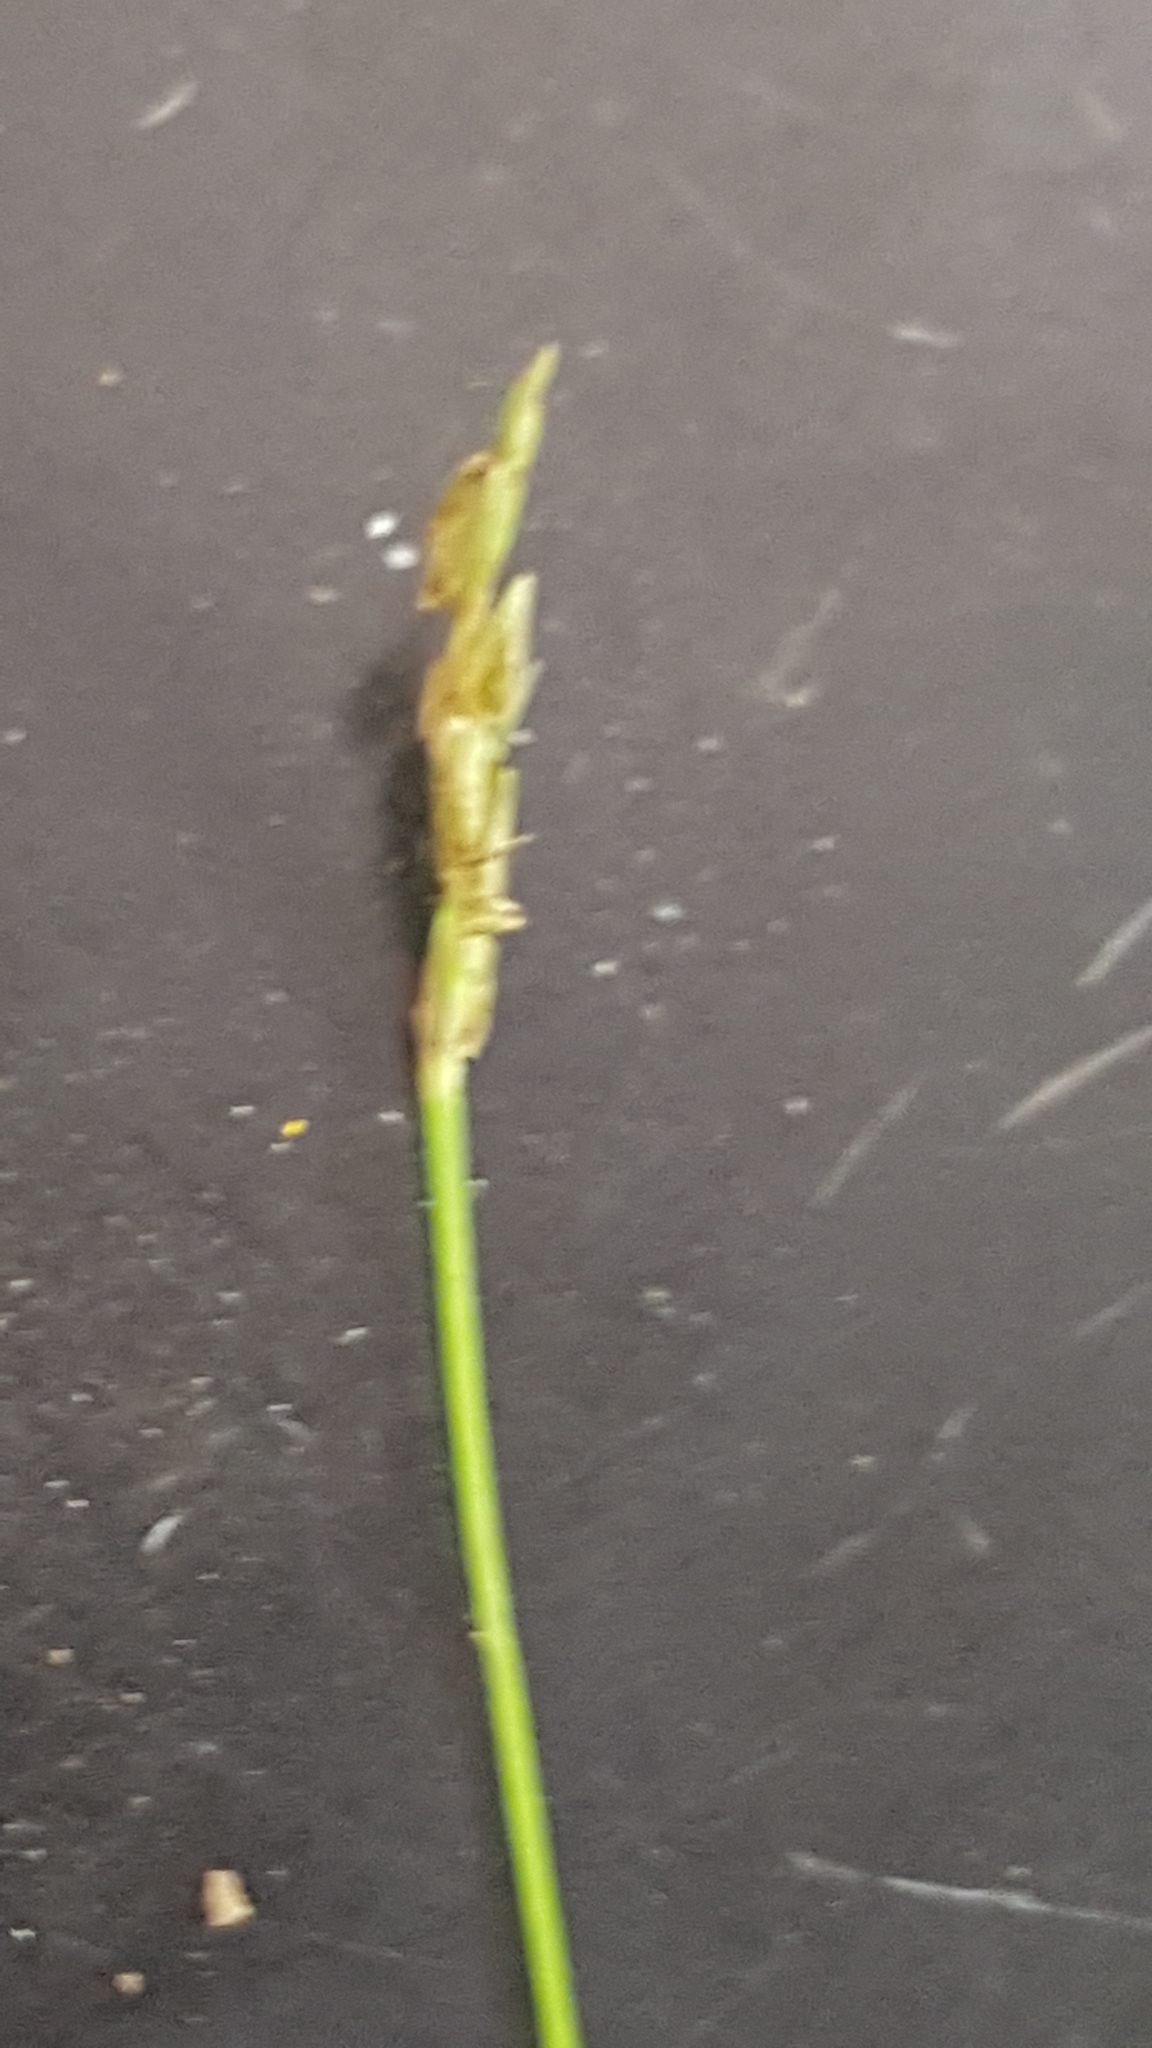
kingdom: Plantae
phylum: Tracheophyta
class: Liliopsida
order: Poales
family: Cyperaceae
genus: Carex
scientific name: Carex leptalea
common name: Bristly-stalked sedge
